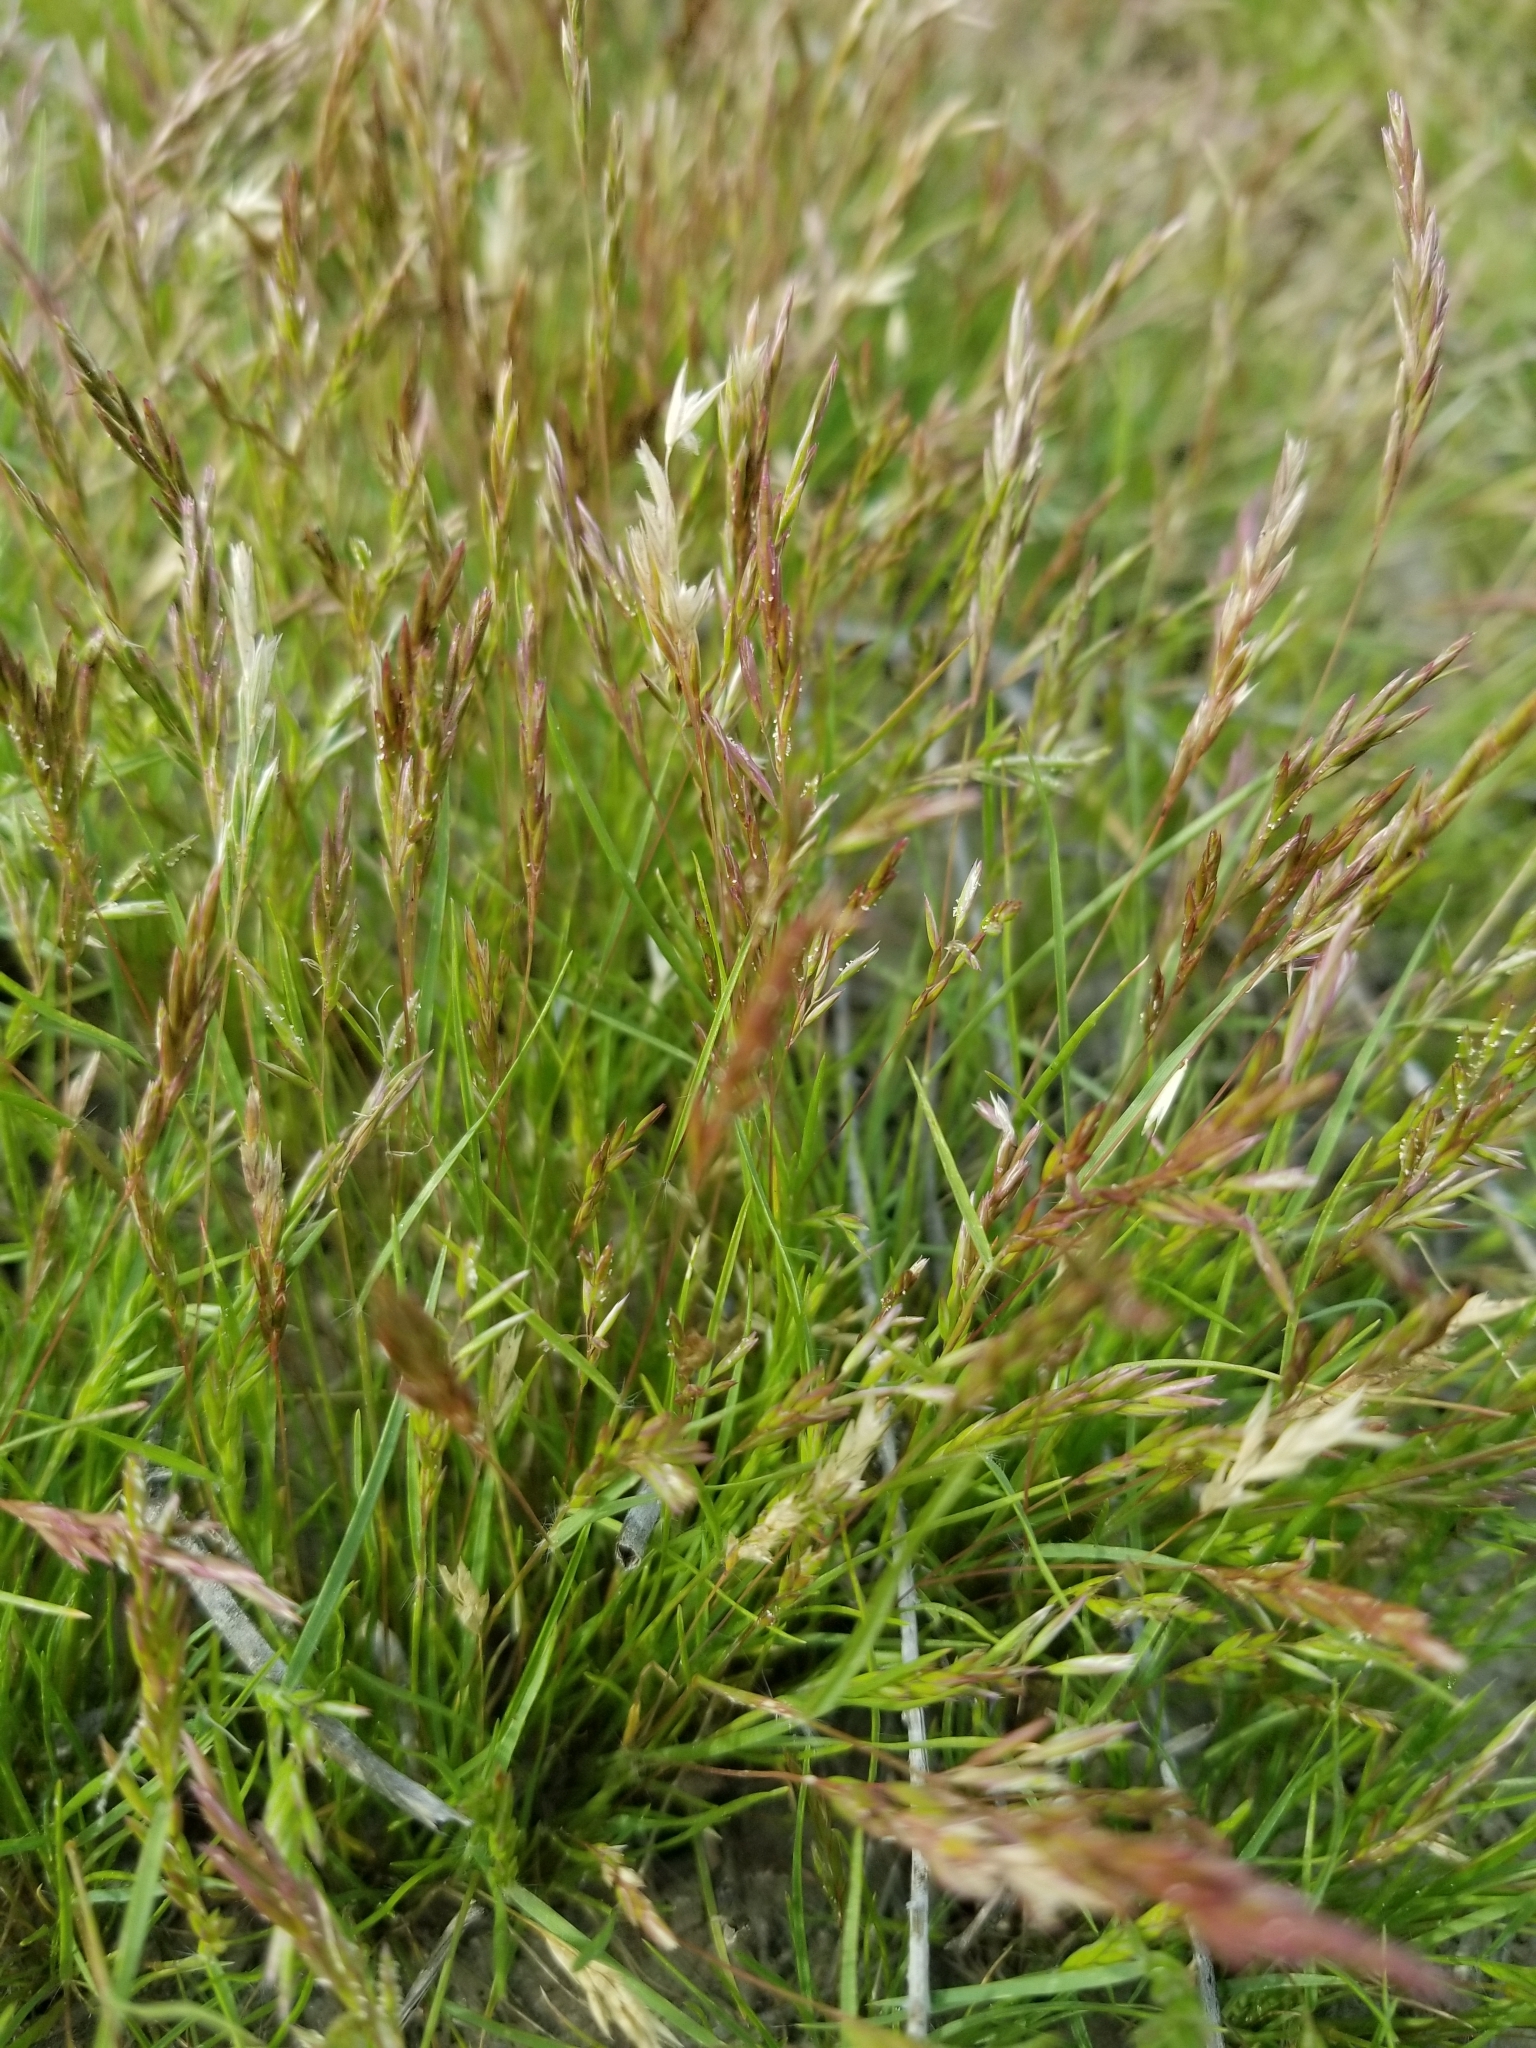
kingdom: Plantae
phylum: Tracheophyta
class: Liliopsida
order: Poales
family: Poaceae
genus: Schismus
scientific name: Schismus barbatus
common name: Kelch-grass
